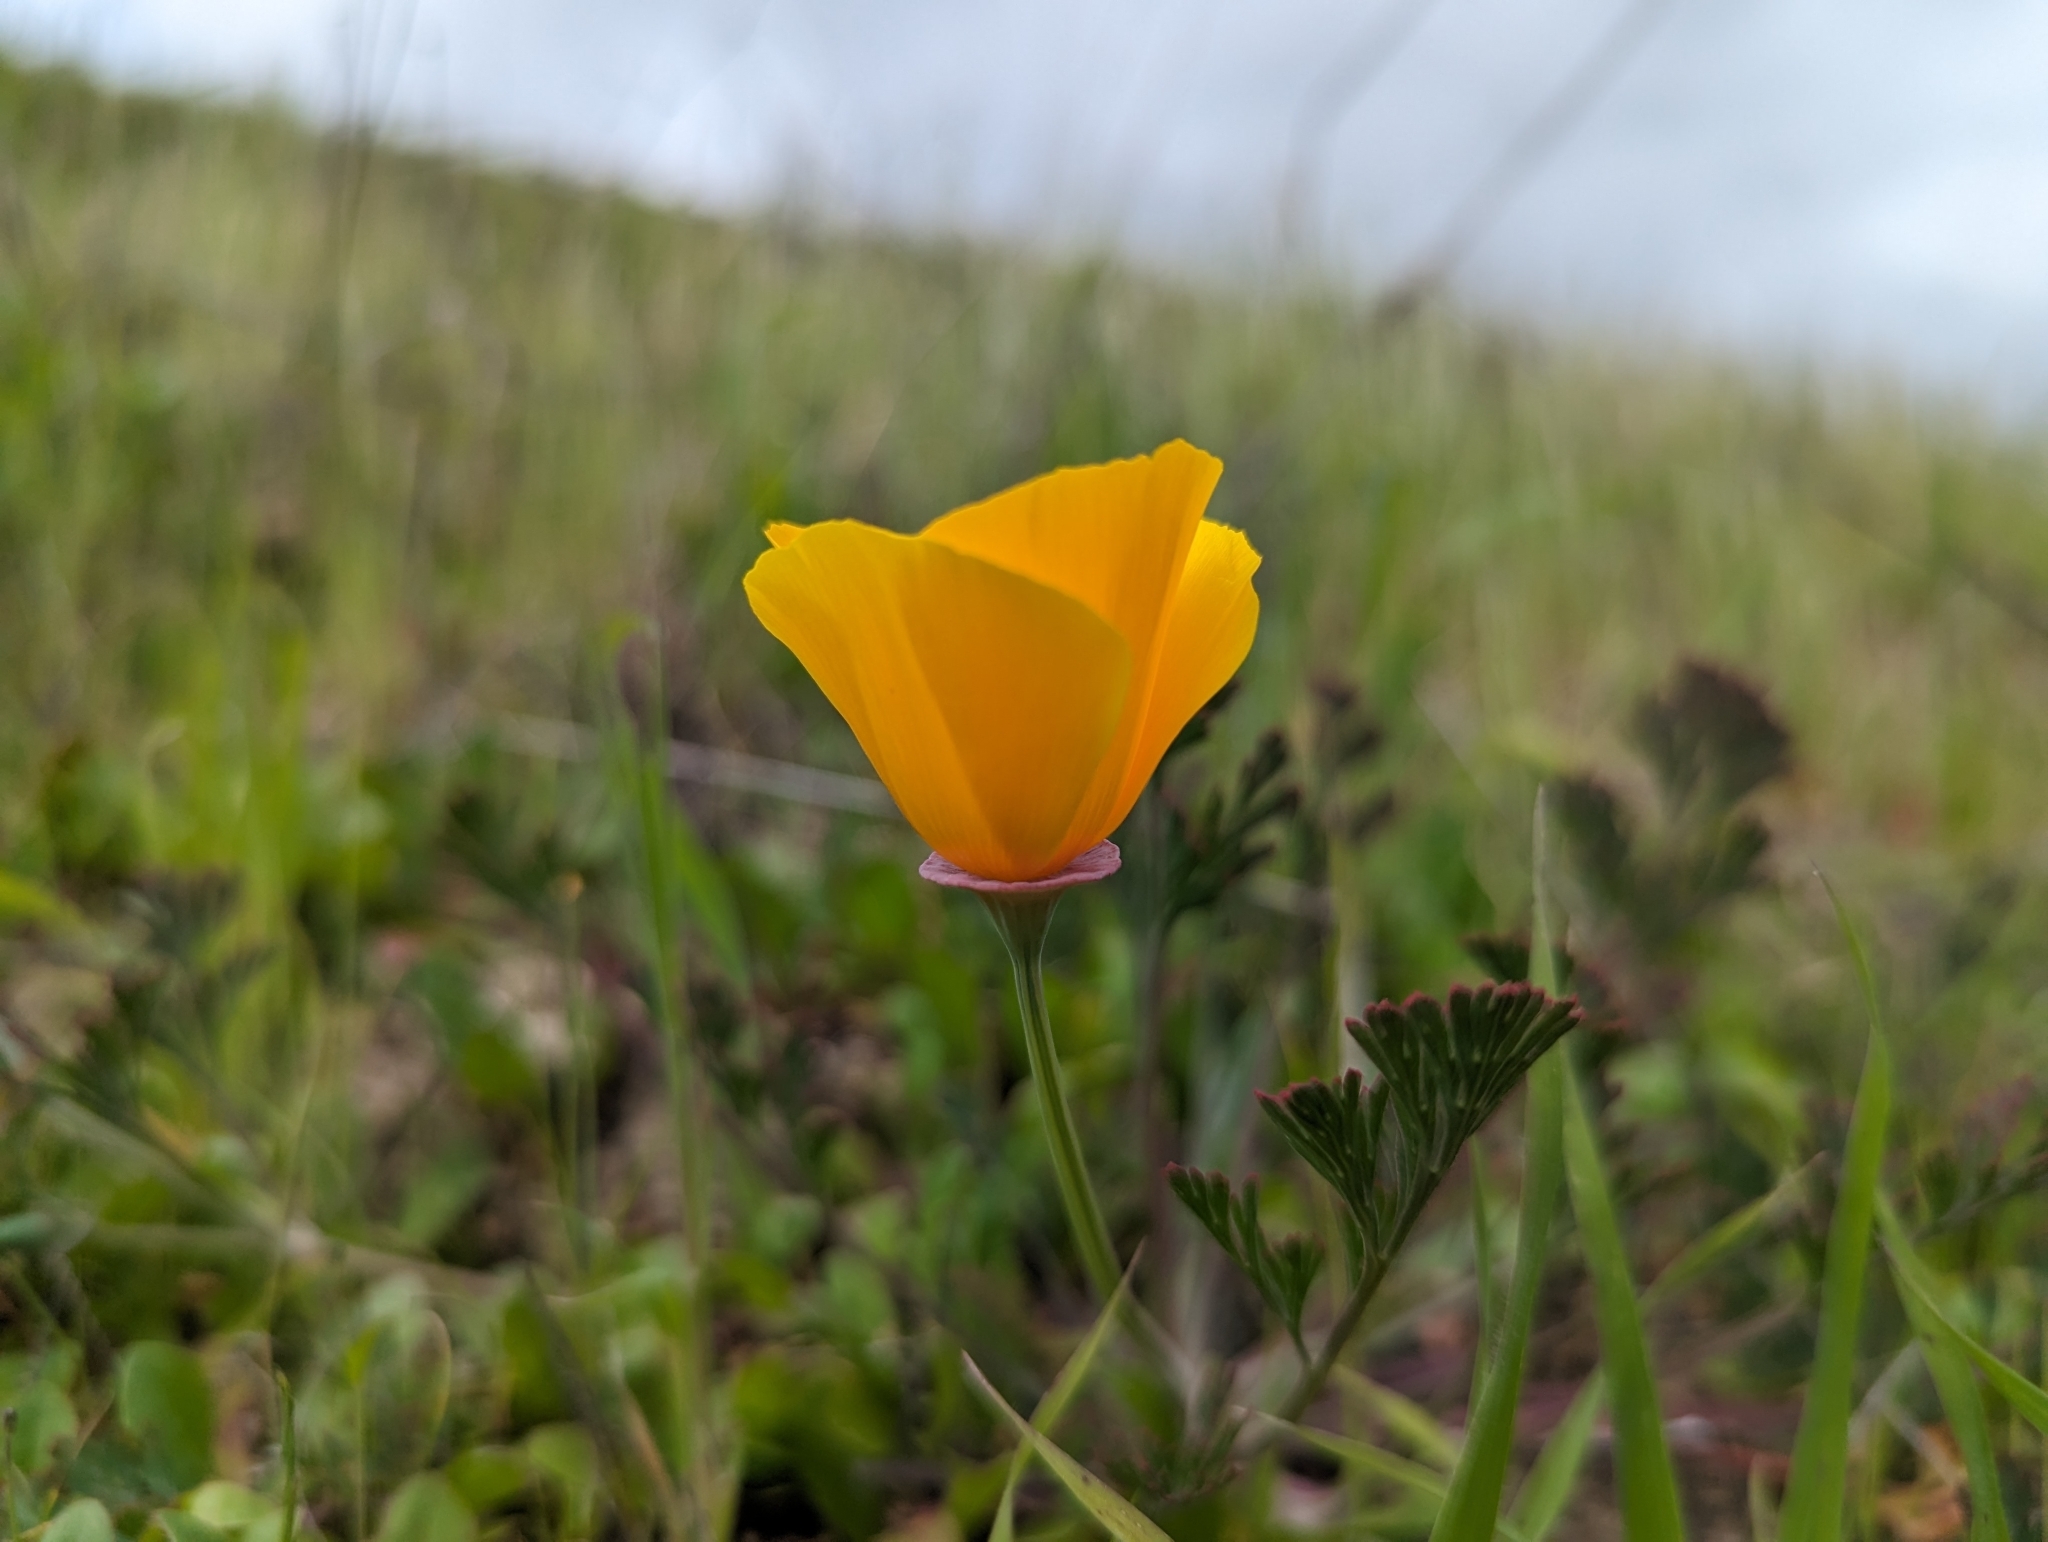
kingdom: Plantae
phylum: Tracheophyta
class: Magnoliopsida
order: Ranunculales
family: Papaveraceae
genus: Eschscholzia
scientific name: Eschscholzia californica
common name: California poppy
